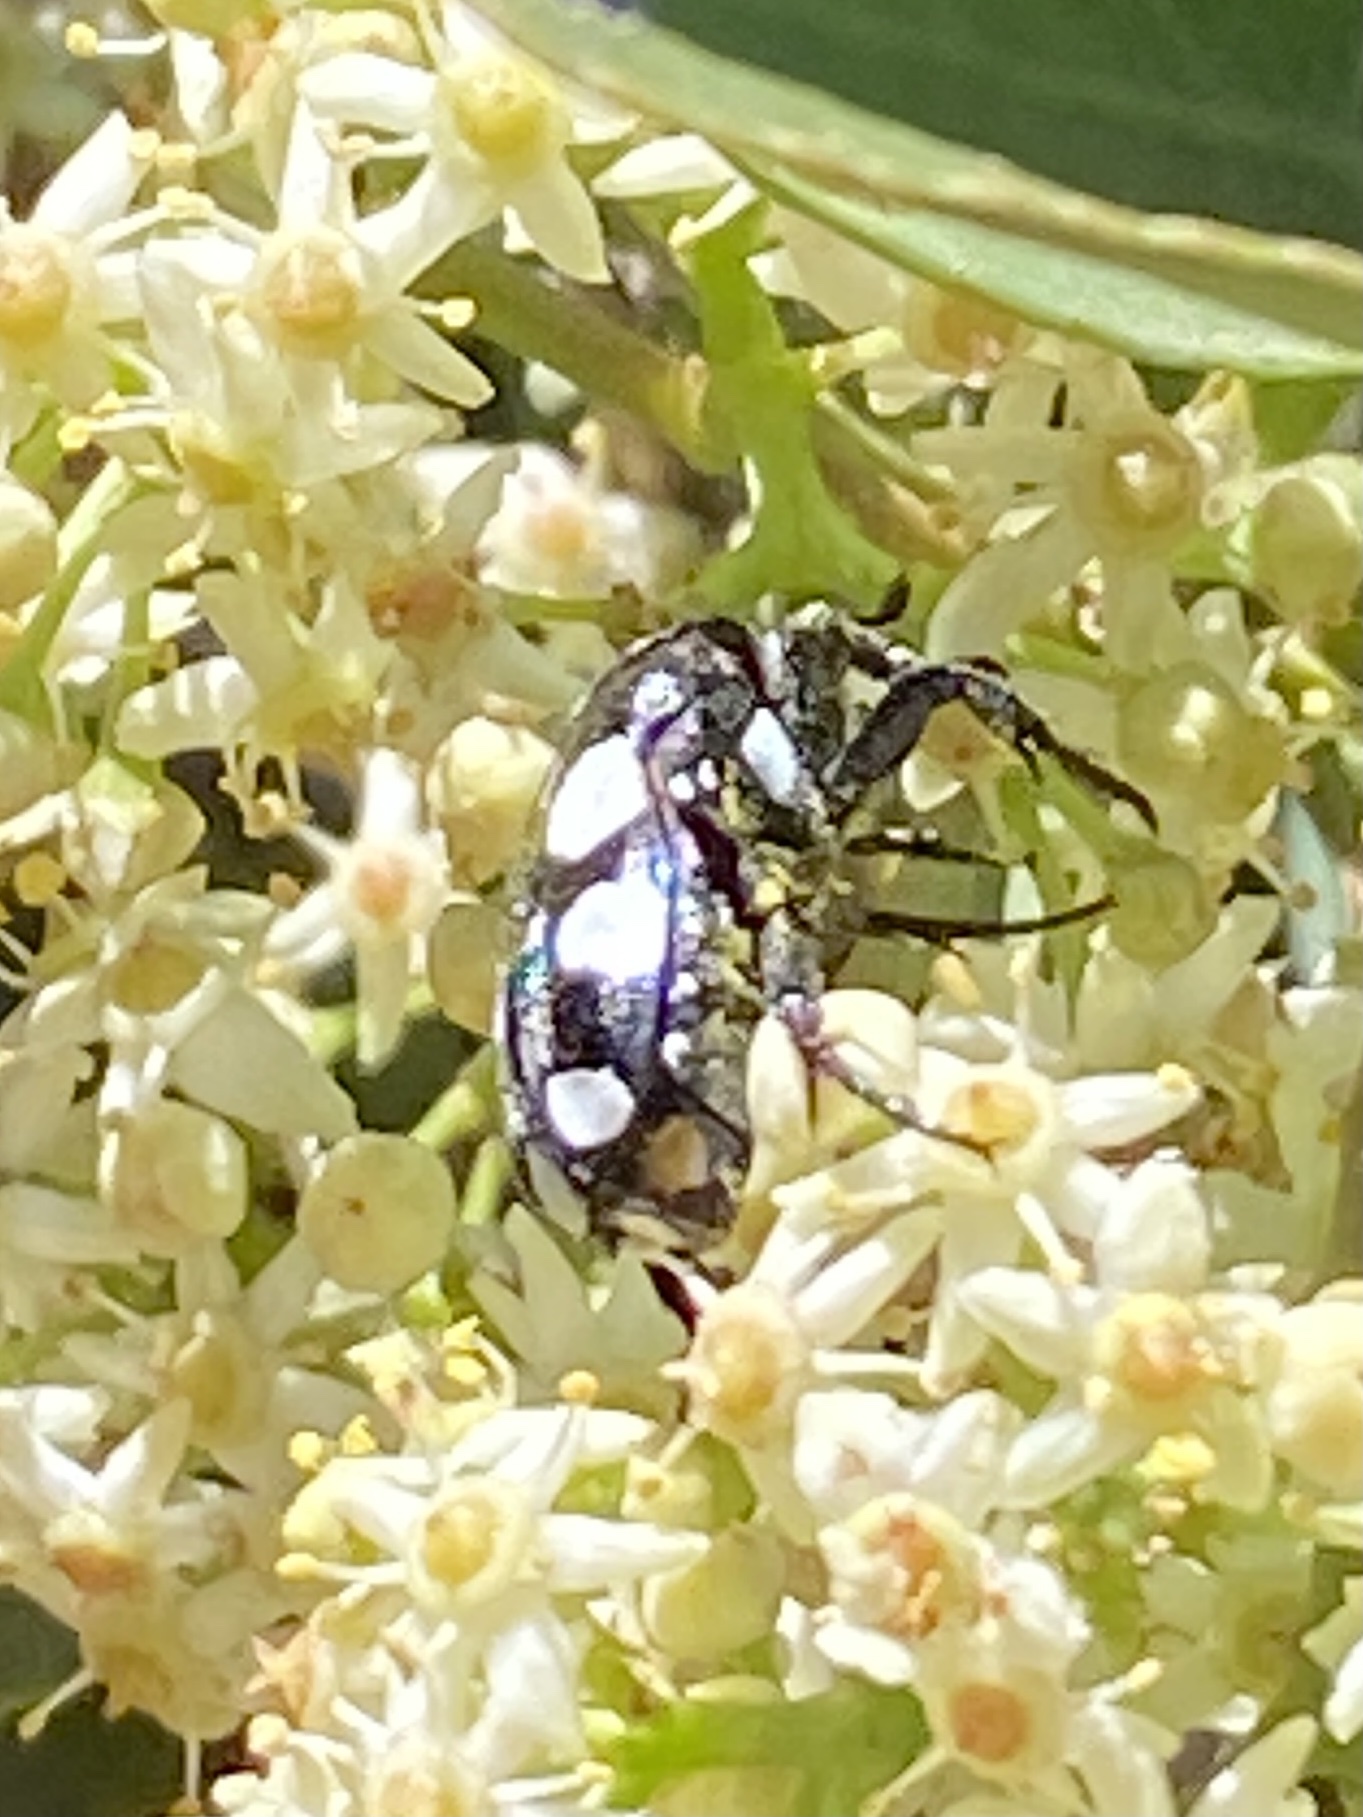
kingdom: Animalia
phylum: Arthropoda
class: Insecta
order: Coleoptera
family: Scarabaeidae
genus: Mausoleopsis
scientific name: Mausoleopsis amabilis
